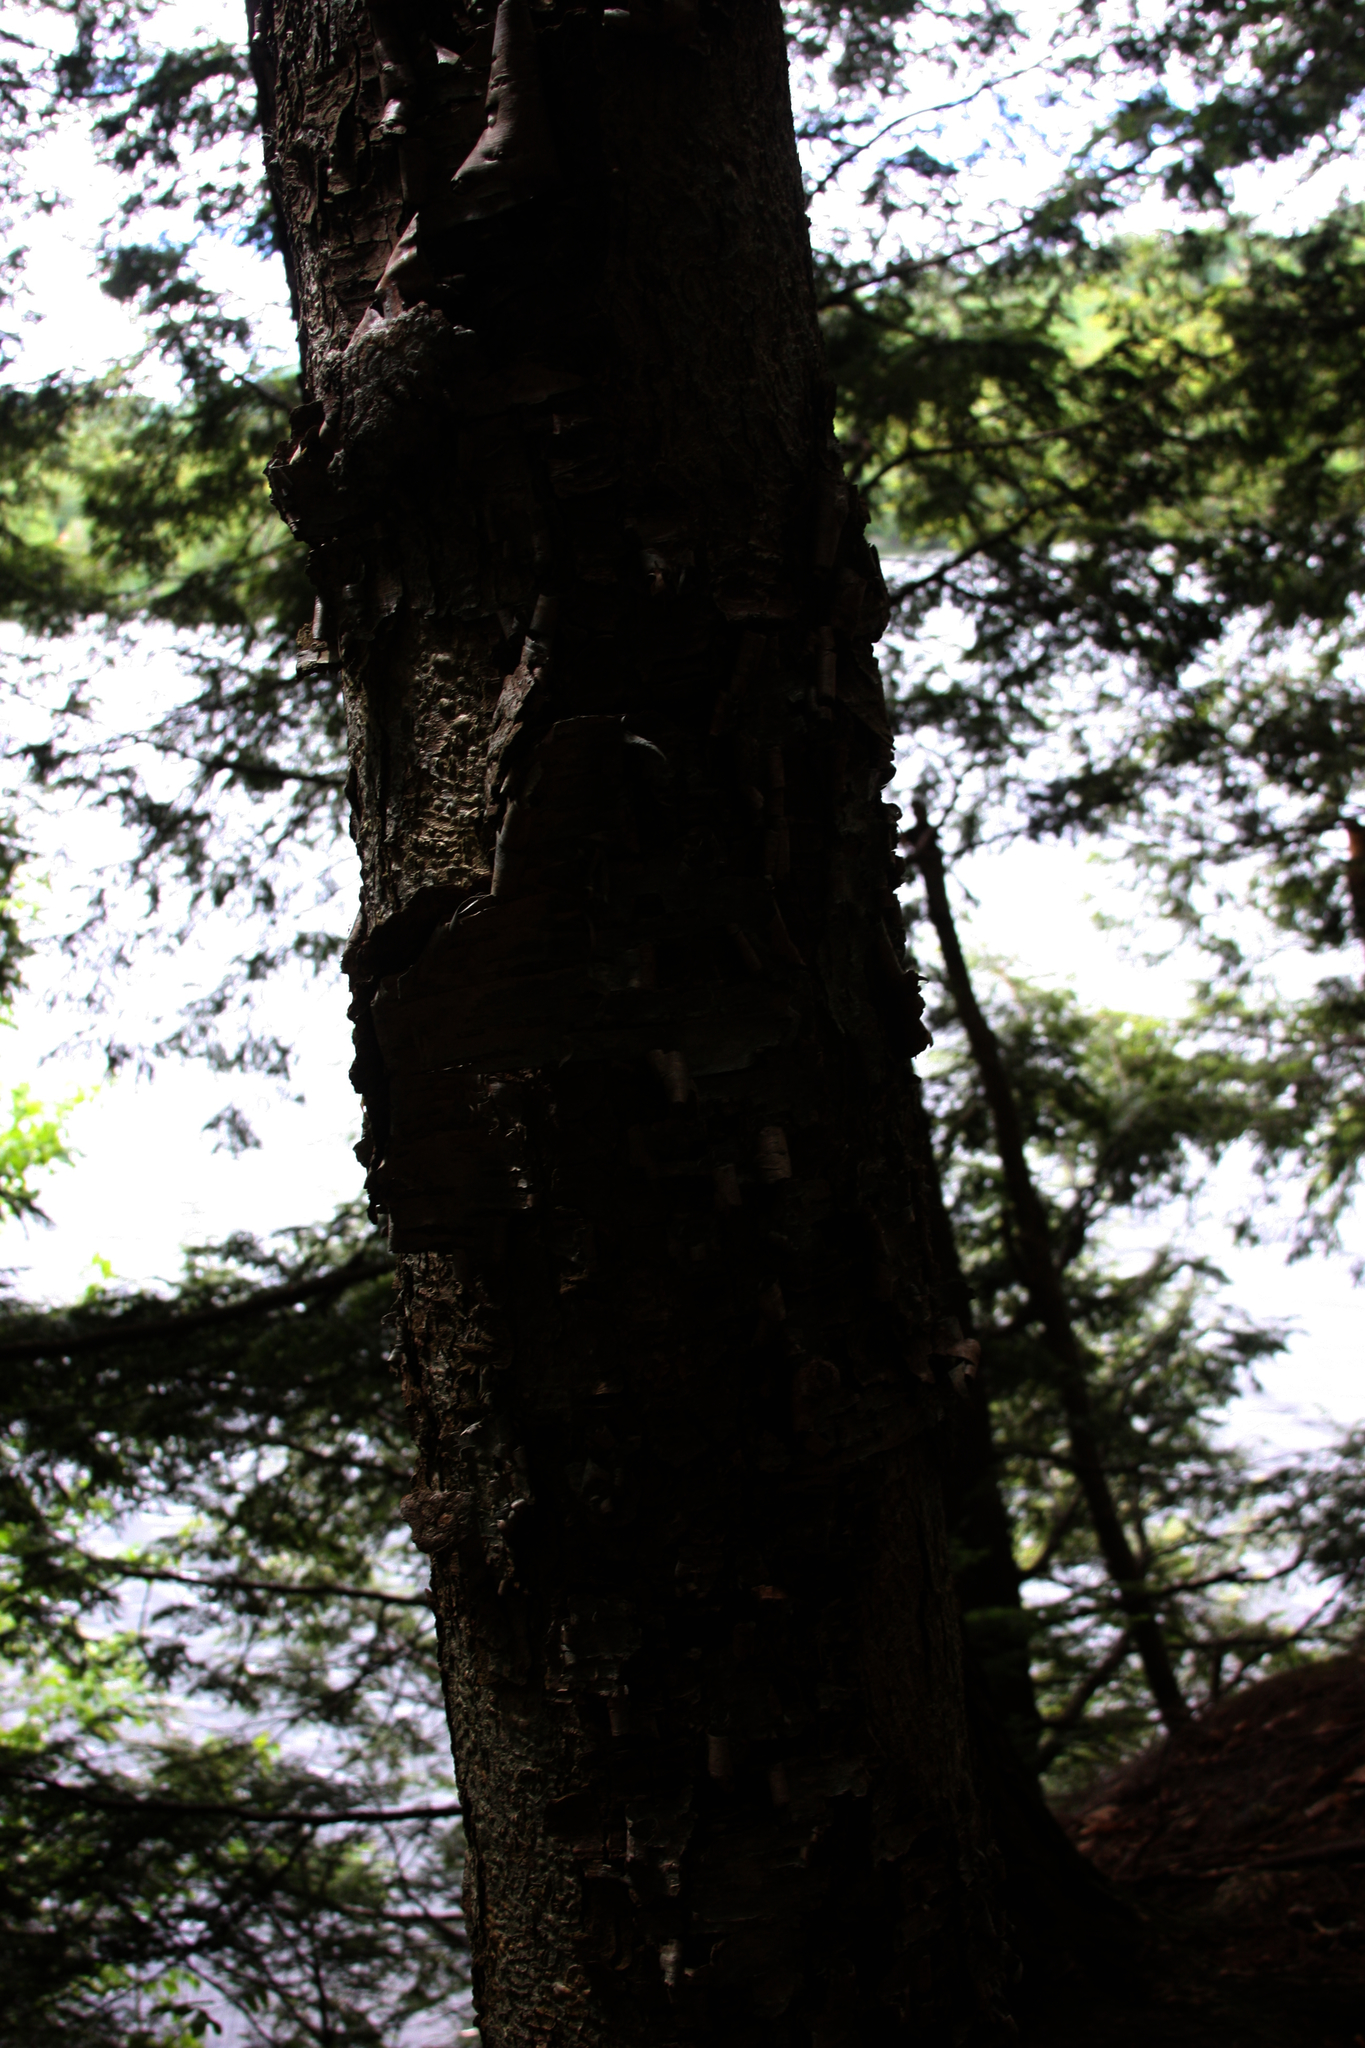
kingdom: Plantae
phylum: Tracheophyta
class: Magnoliopsida
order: Fagales
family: Betulaceae
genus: Betula
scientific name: Betula alleghaniensis
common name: Yellow birch
